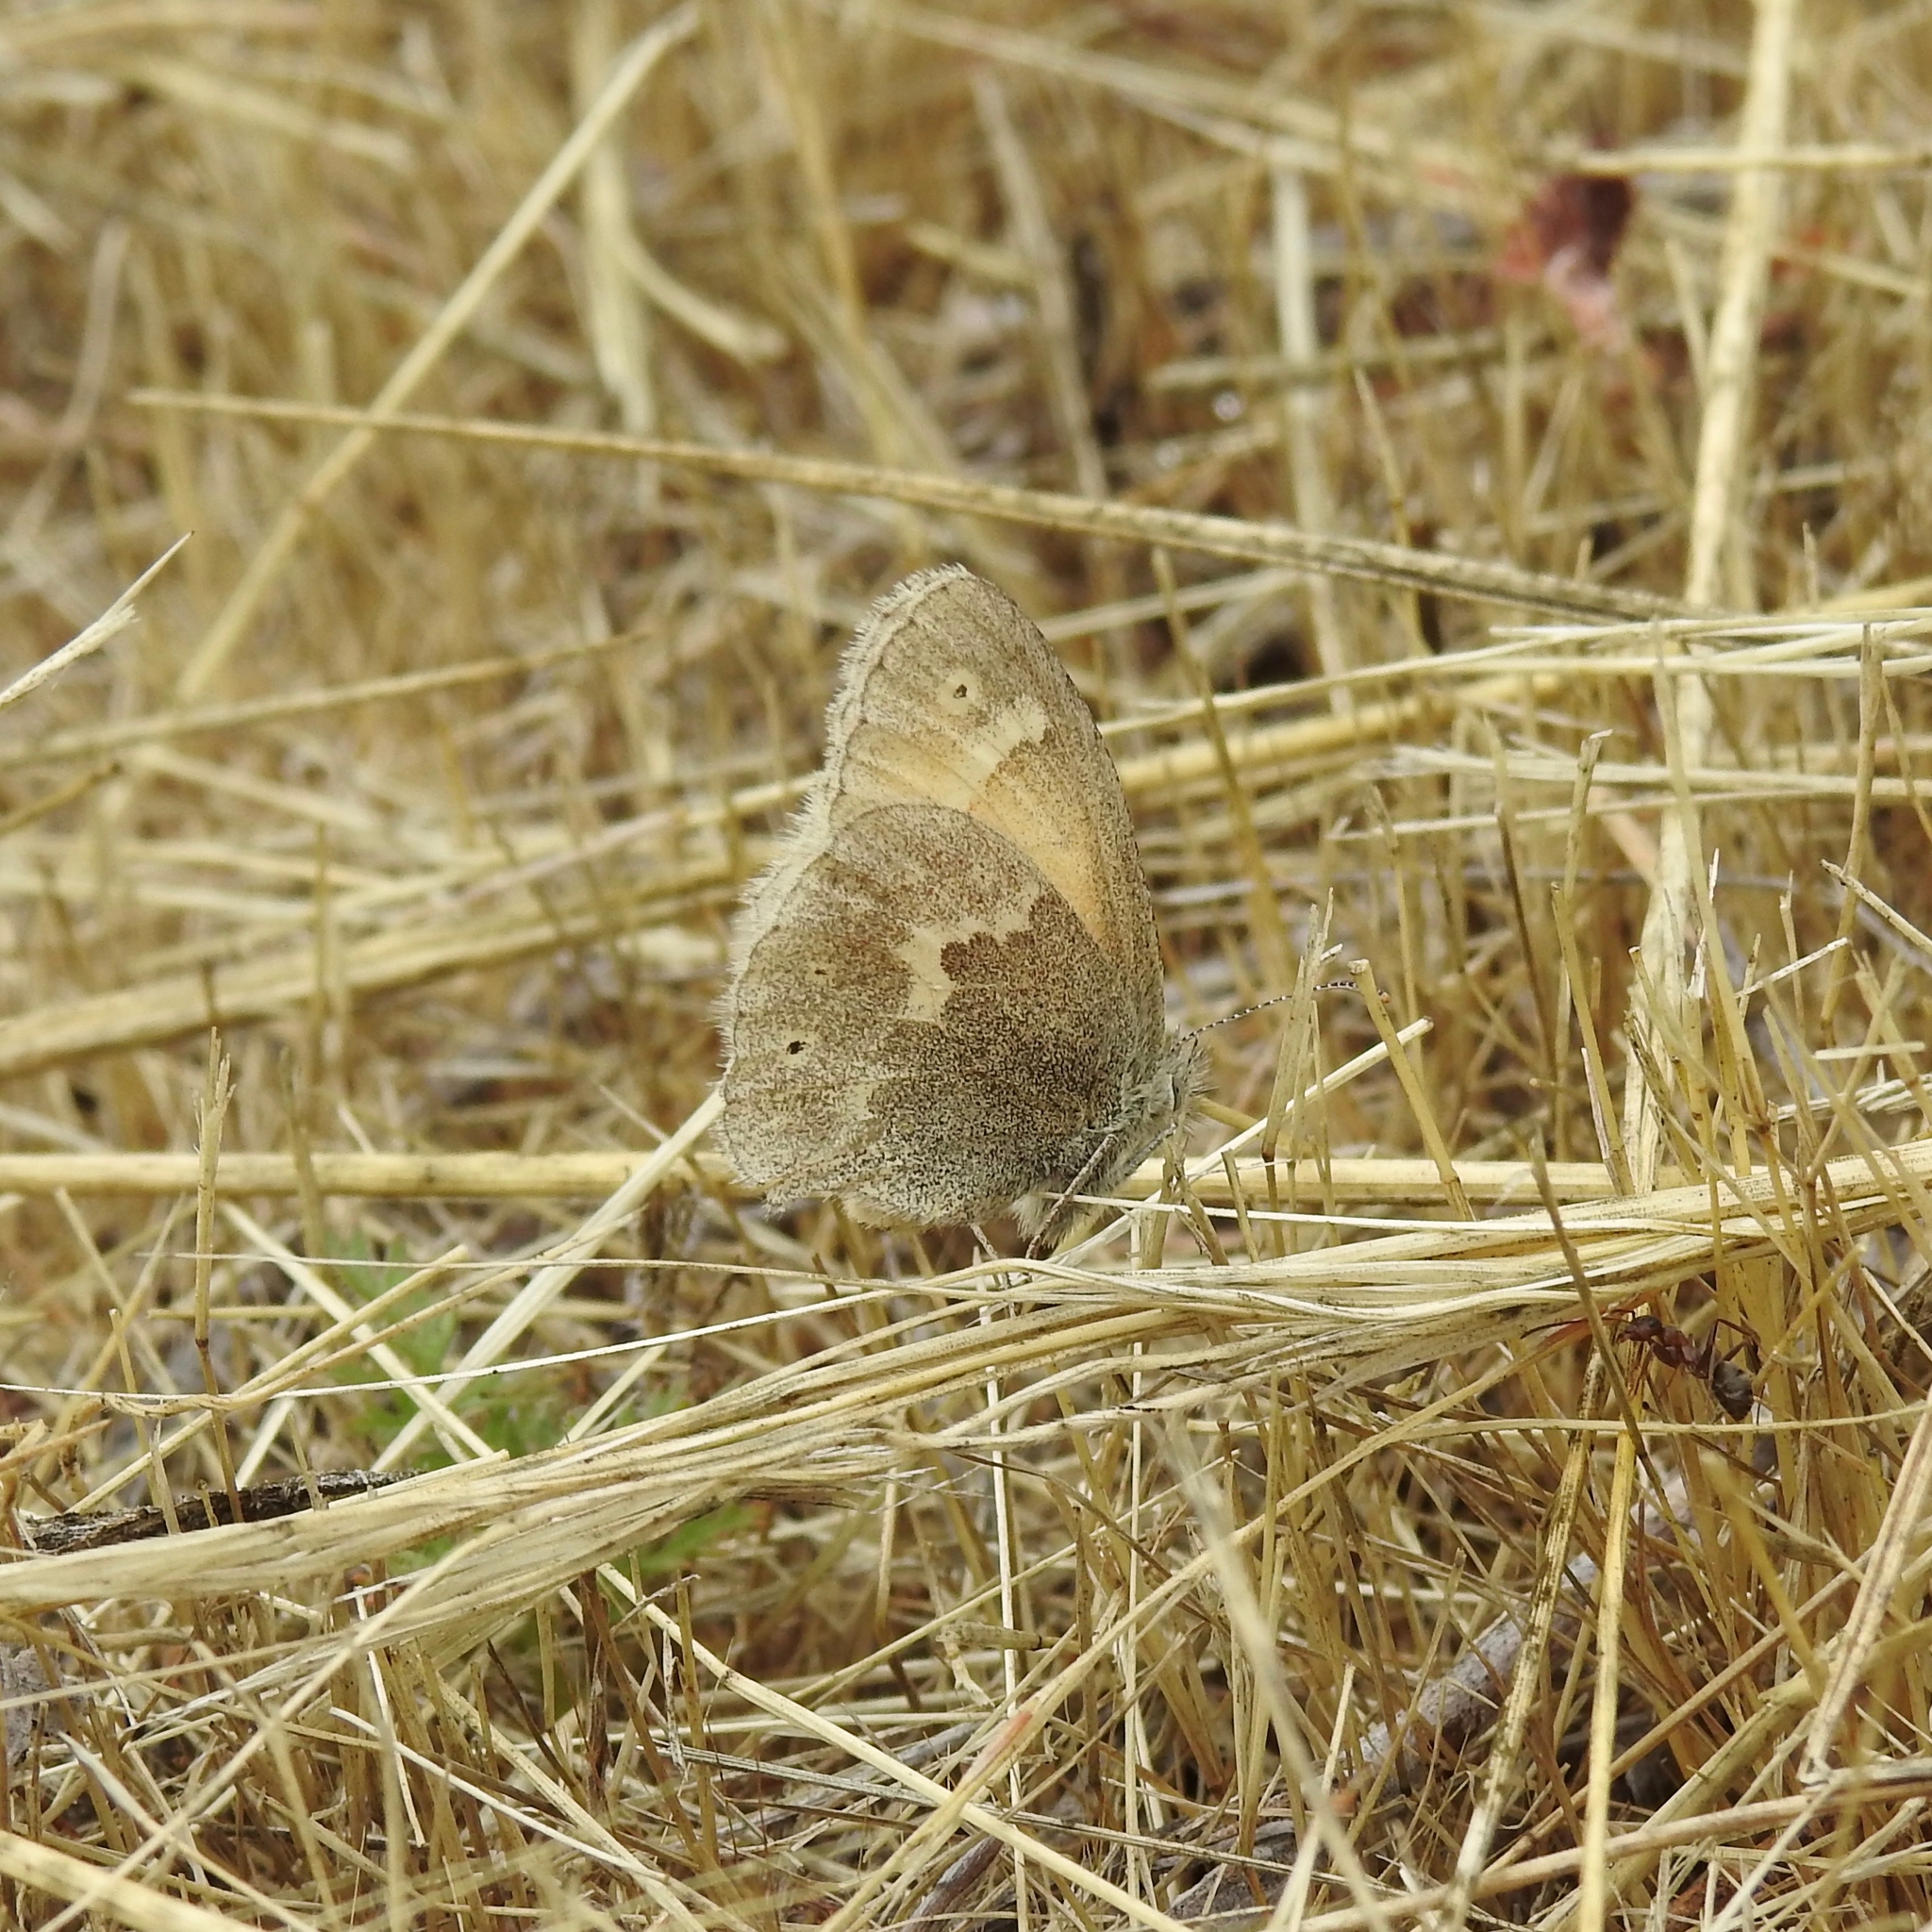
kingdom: Animalia
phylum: Arthropoda
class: Insecta
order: Lepidoptera
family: Nymphalidae
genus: Coenonympha
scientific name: Coenonympha california
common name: Common ringlet
